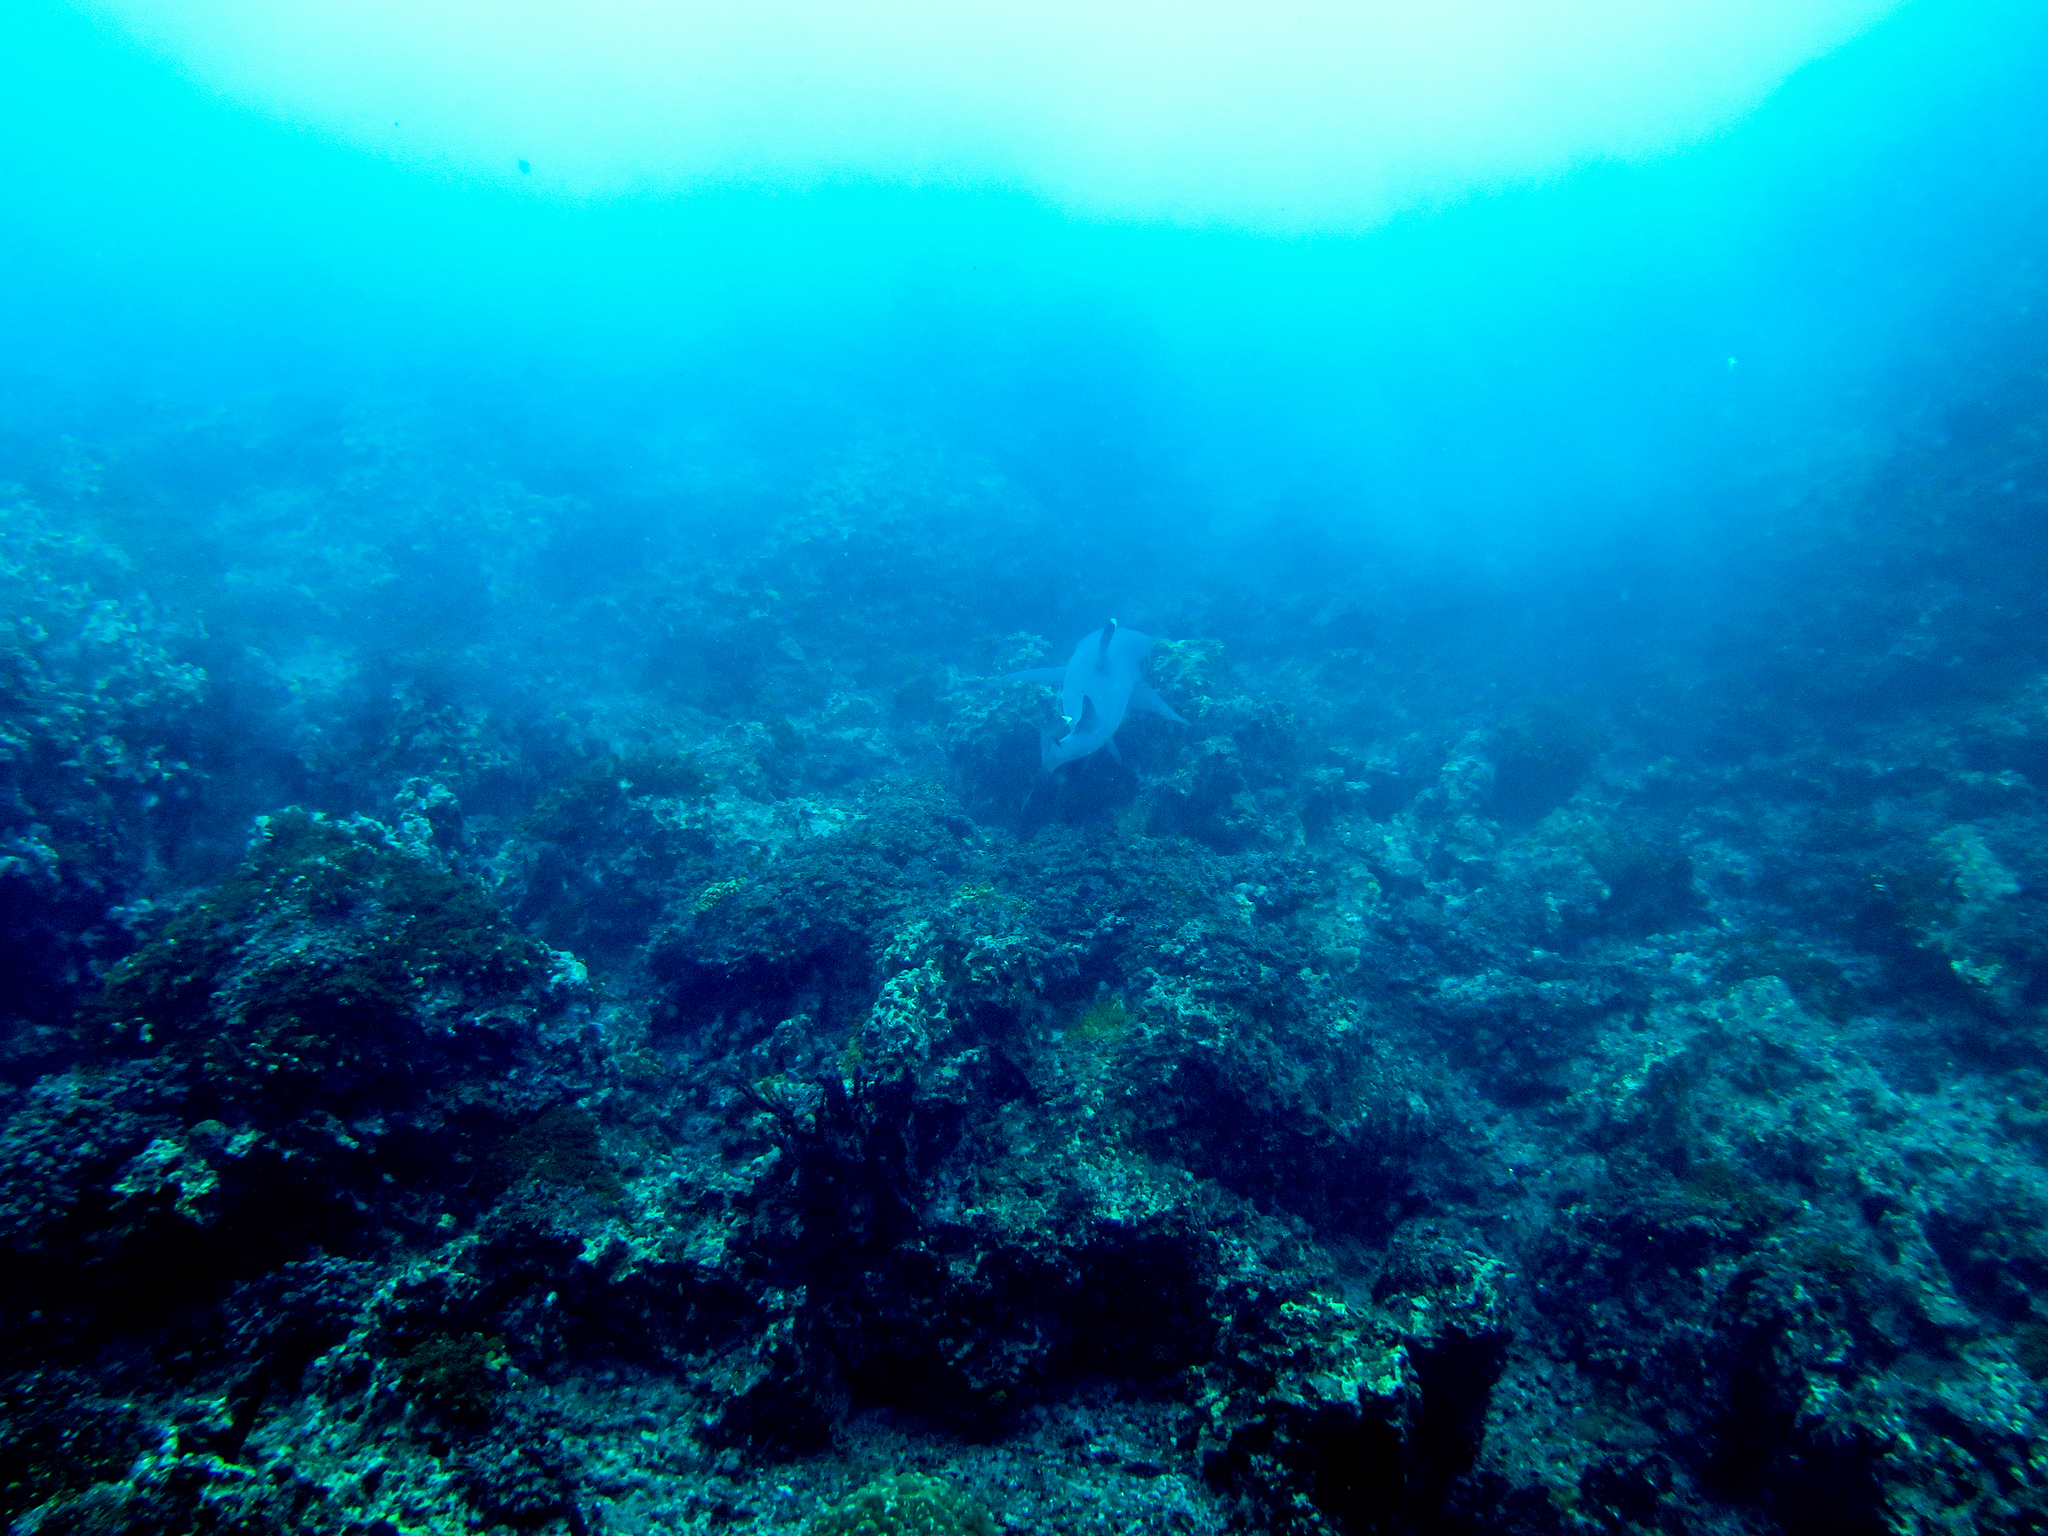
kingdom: Animalia
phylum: Chordata
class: Elasmobranchii
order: Carcharhiniformes
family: Carcharhinidae
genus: Triaenodon
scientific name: Triaenodon obesus
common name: Whitetip reef shark
